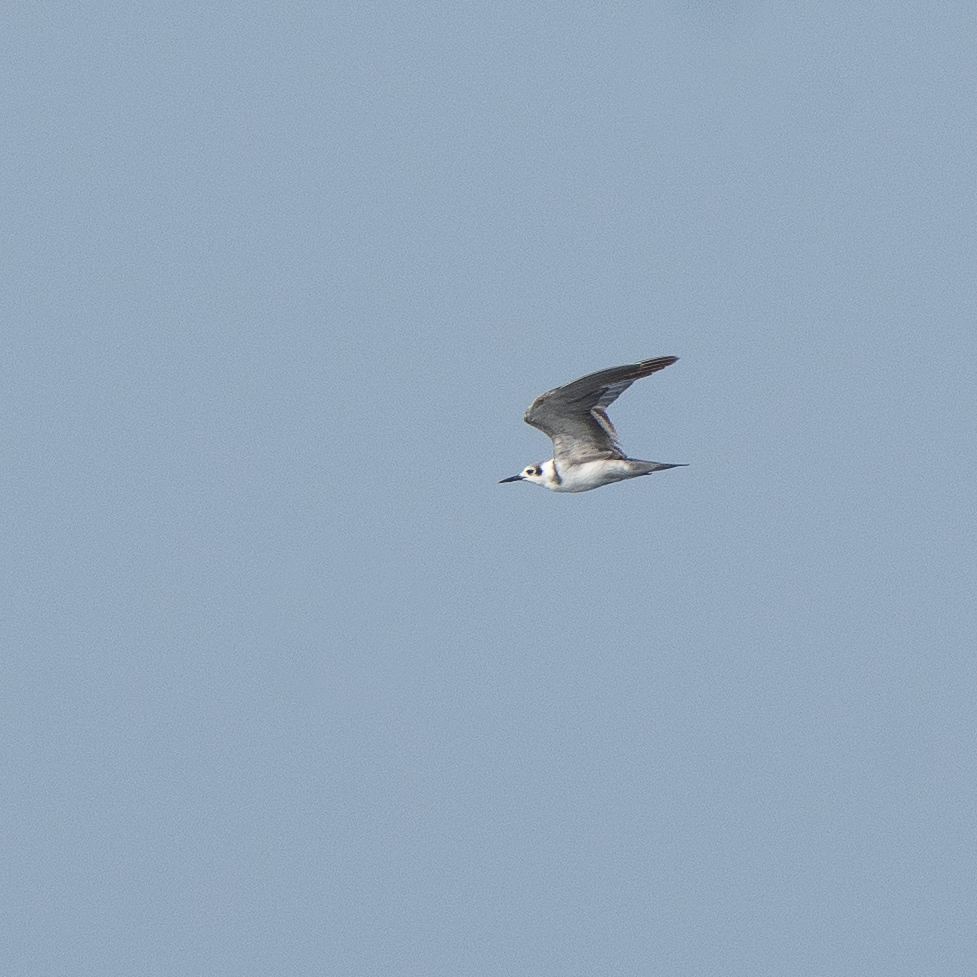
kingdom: Animalia
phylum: Chordata
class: Aves
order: Charadriiformes
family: Laridae
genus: Chlidonias
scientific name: Chlidonias niger
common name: Black tern
